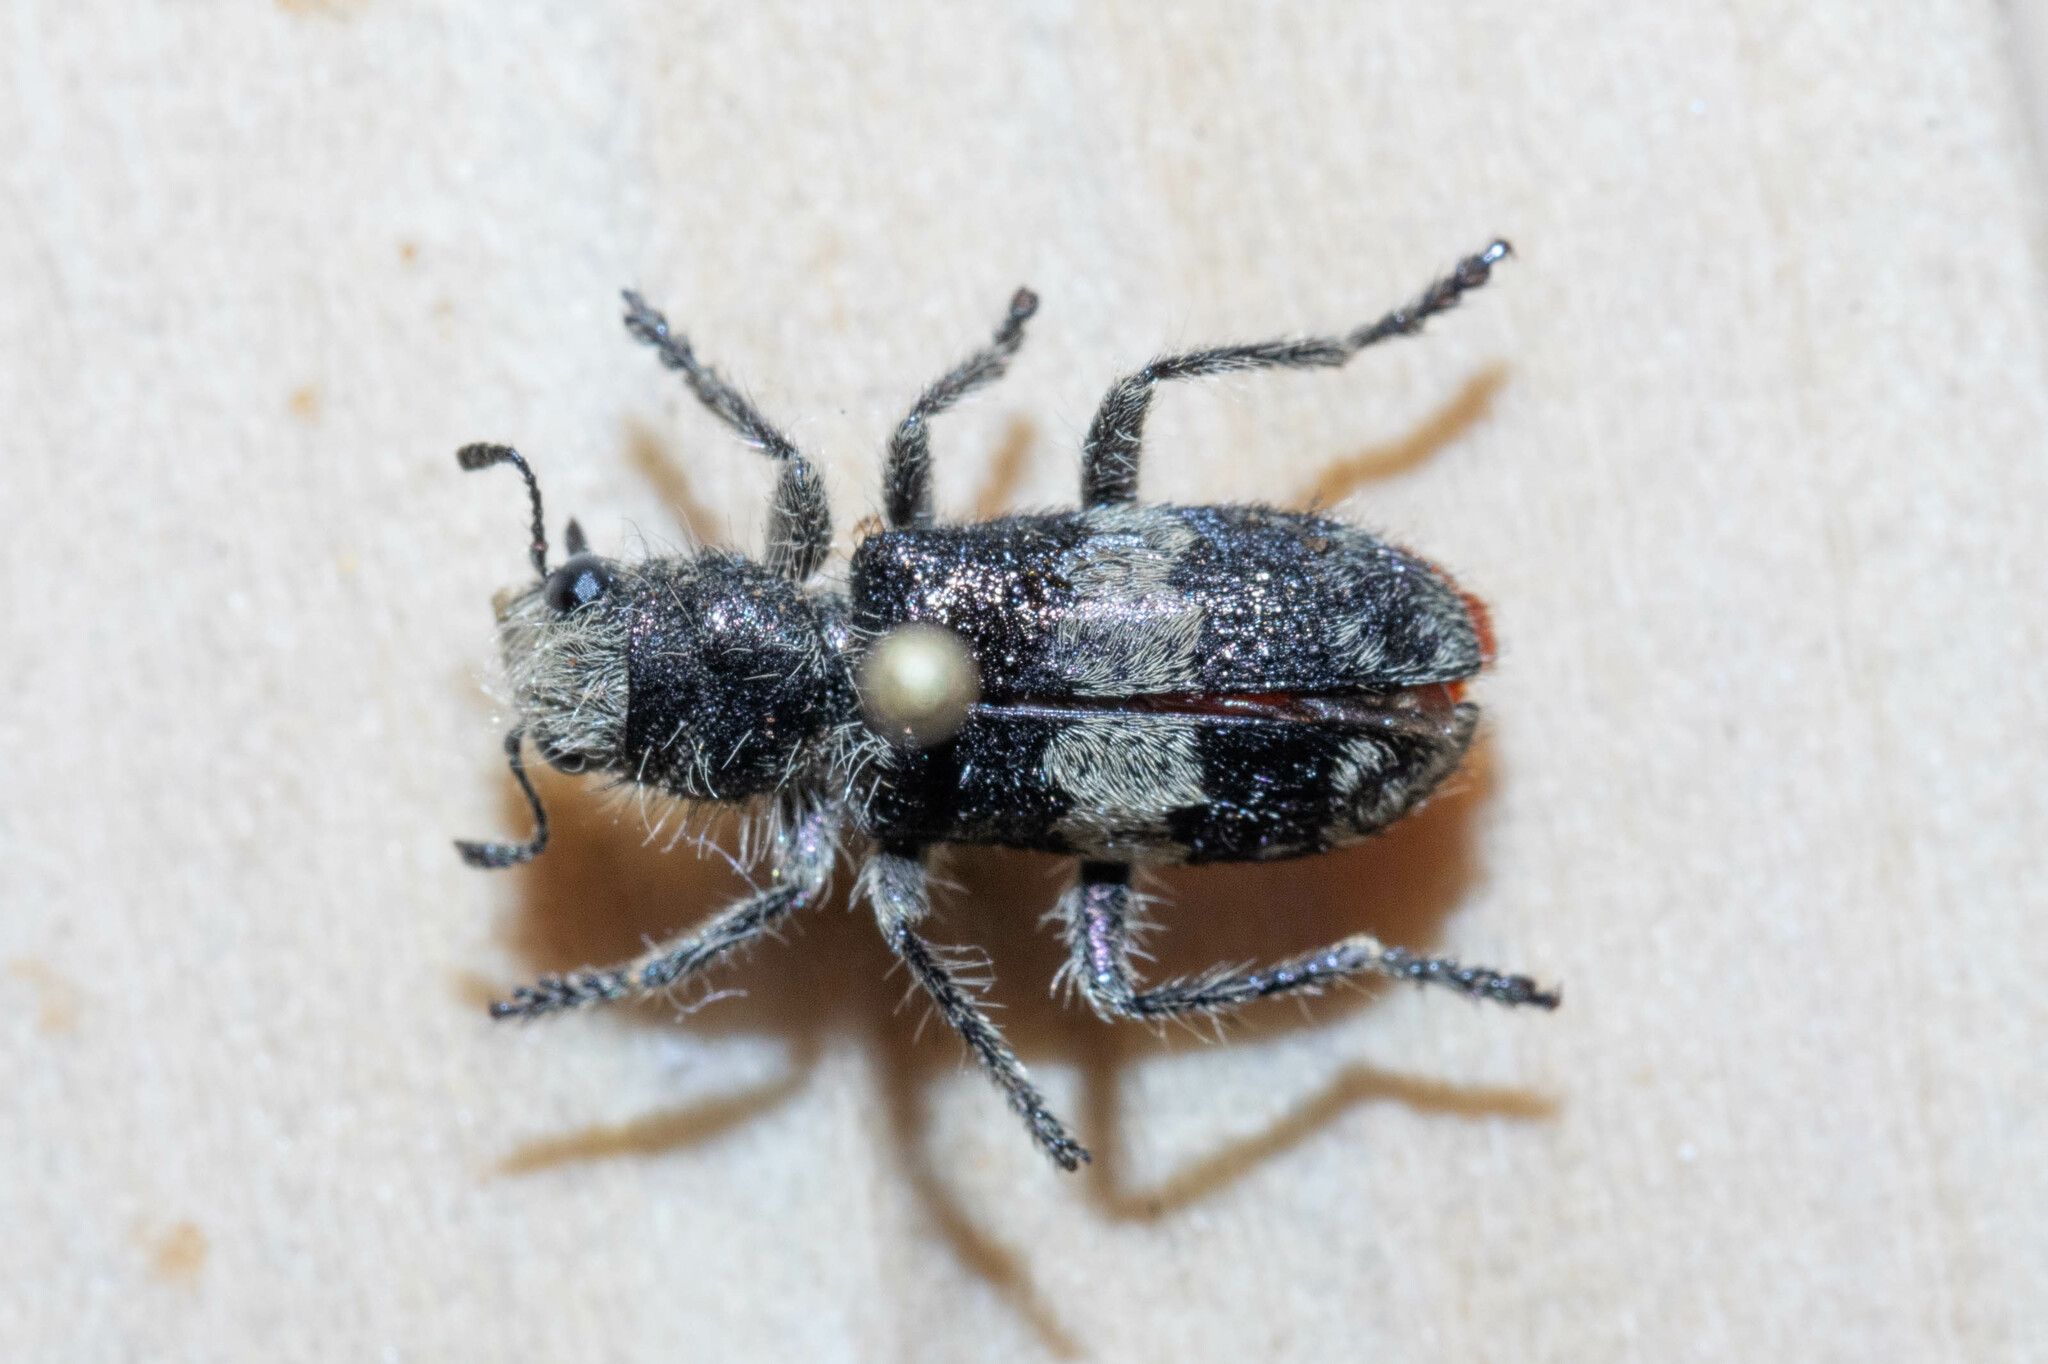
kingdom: Animalia
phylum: Arthropoda
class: Insecta
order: Coleoptera
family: Cleridae
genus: Enoclerus
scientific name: Enoclerus sphegeus
